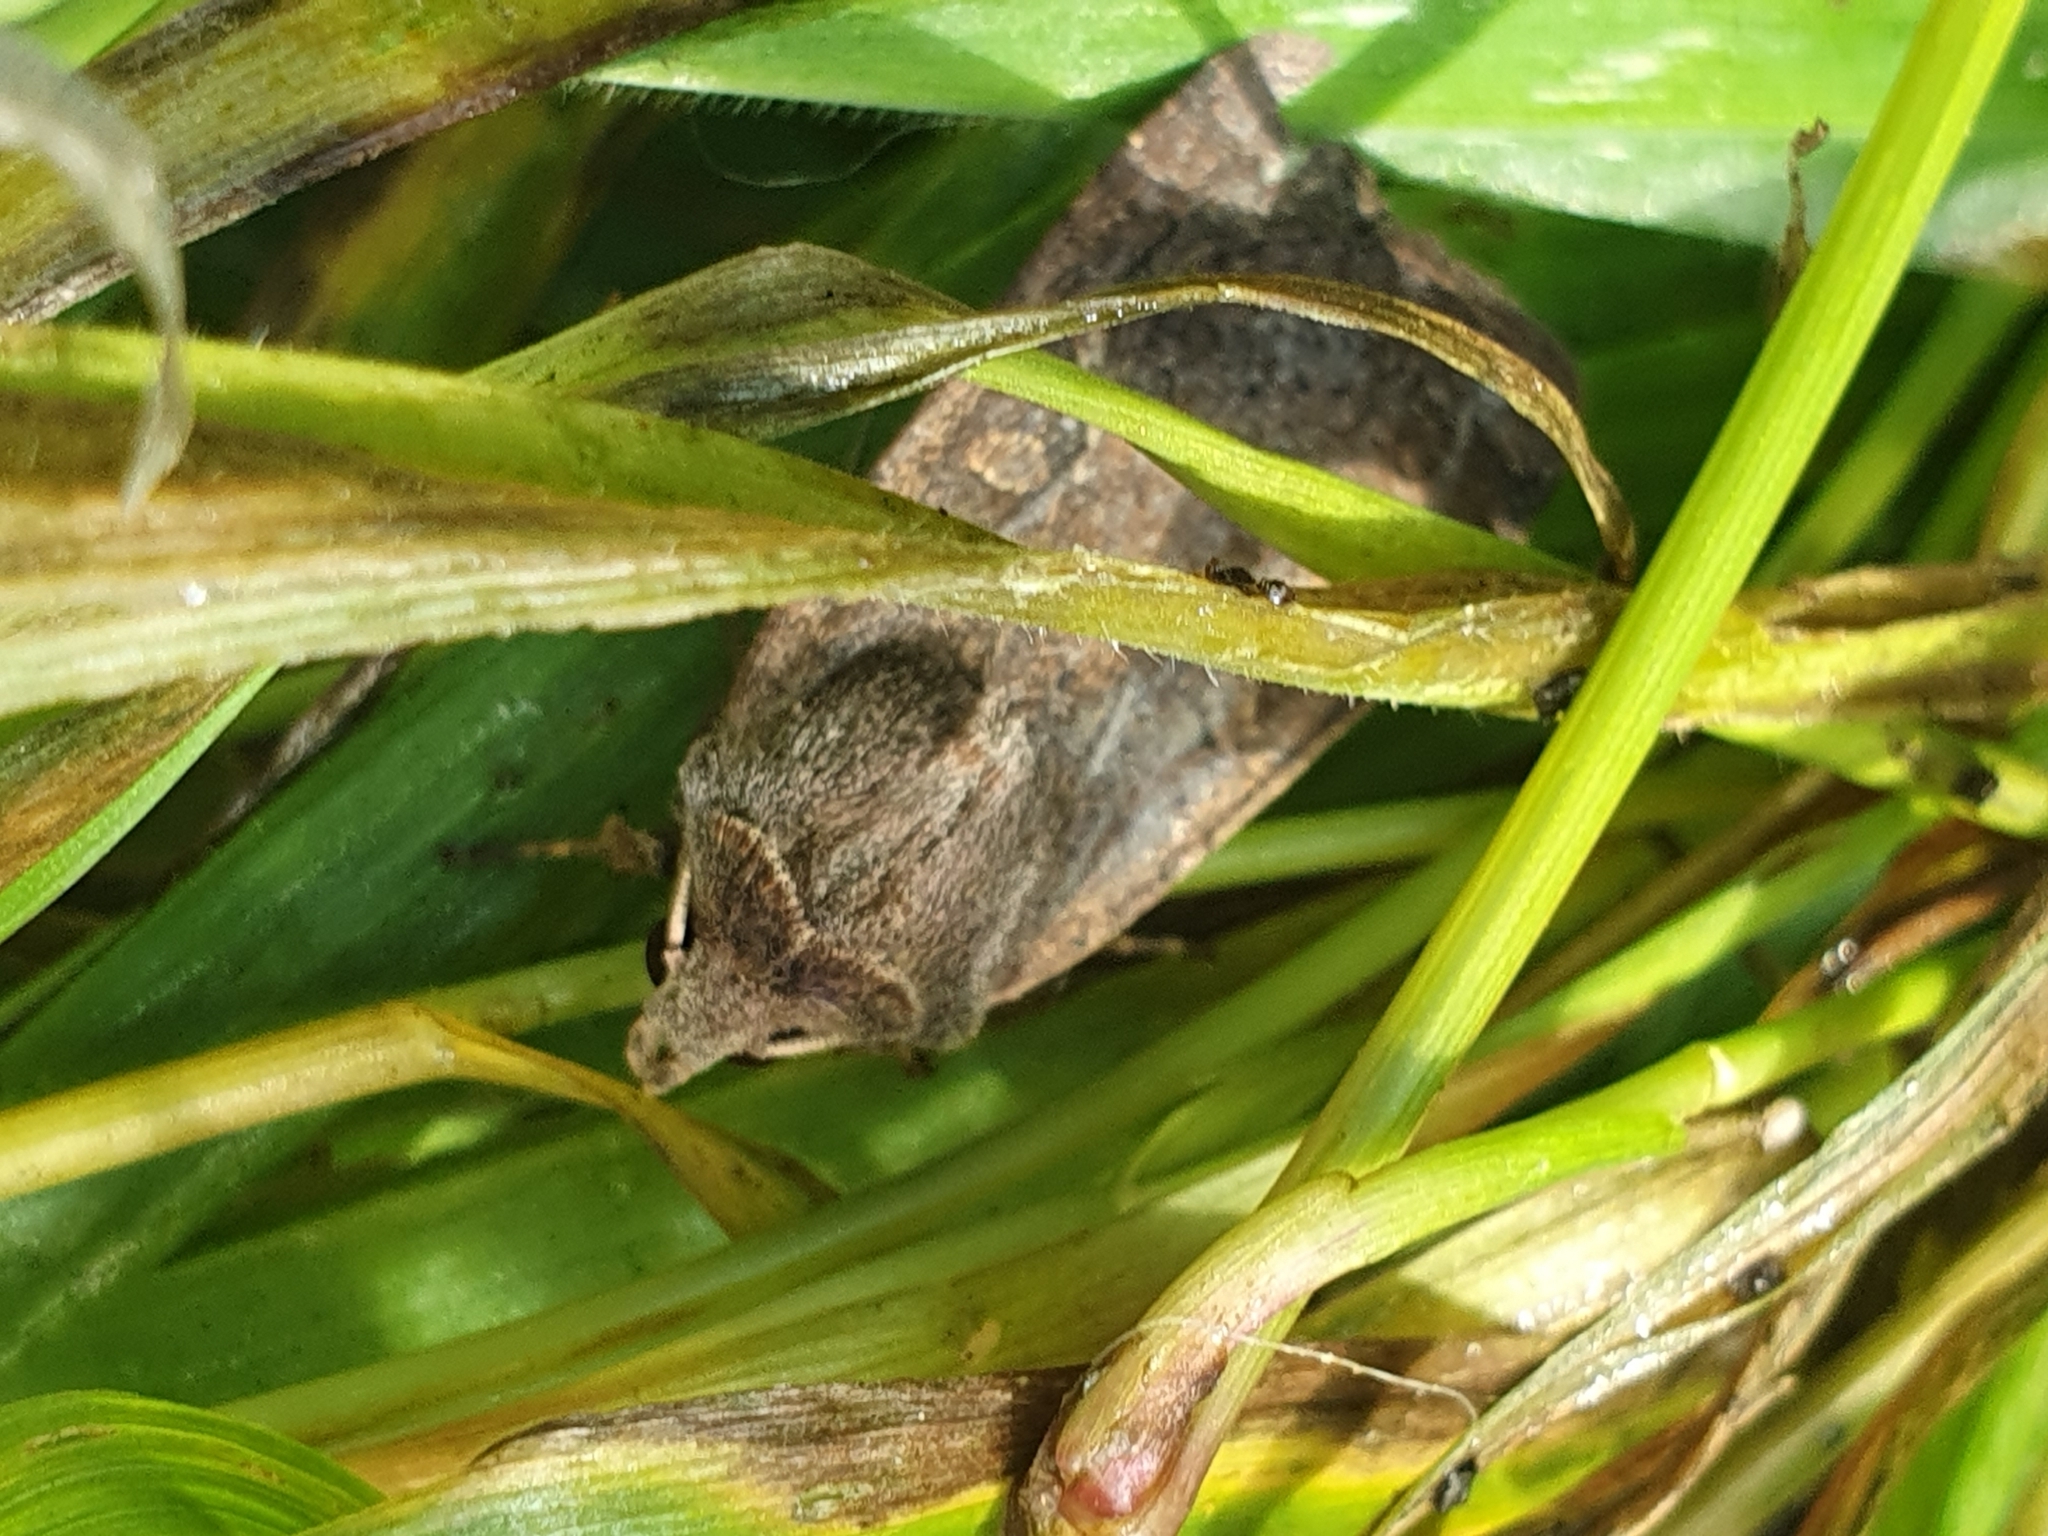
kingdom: Animalia
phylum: Arthropoda
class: Insecta
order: Lepidoptera
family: Noctuidae
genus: Xestia
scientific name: Xestia xanthographa
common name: Square-spot rustic
